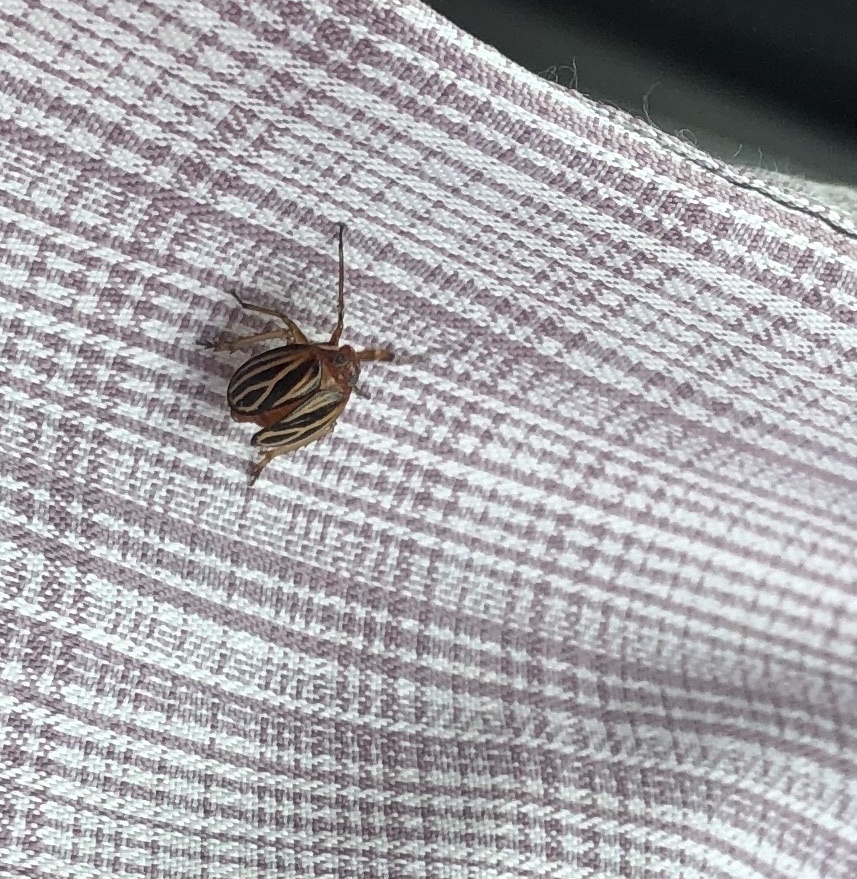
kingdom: Animalia
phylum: Arthropoda
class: Insecta
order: Hemiptera
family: Achilidae
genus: Isodaemon
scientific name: Isodaemon orontes
